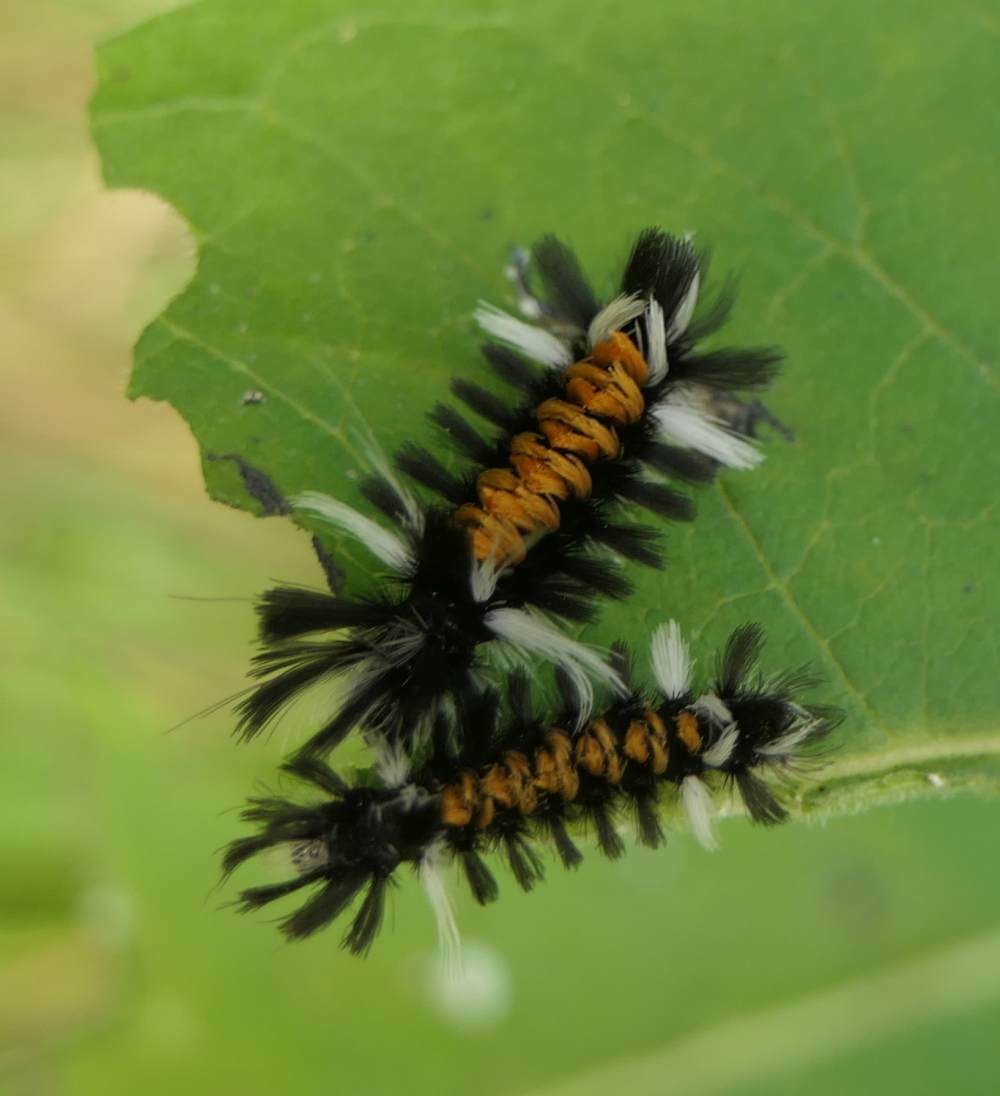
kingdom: Animalia
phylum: Arthropoda
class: Insecta
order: Lepidoptera
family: Erebidae
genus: Euchaetes
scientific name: Euchaetes egle
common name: Milkweed tussock moth
